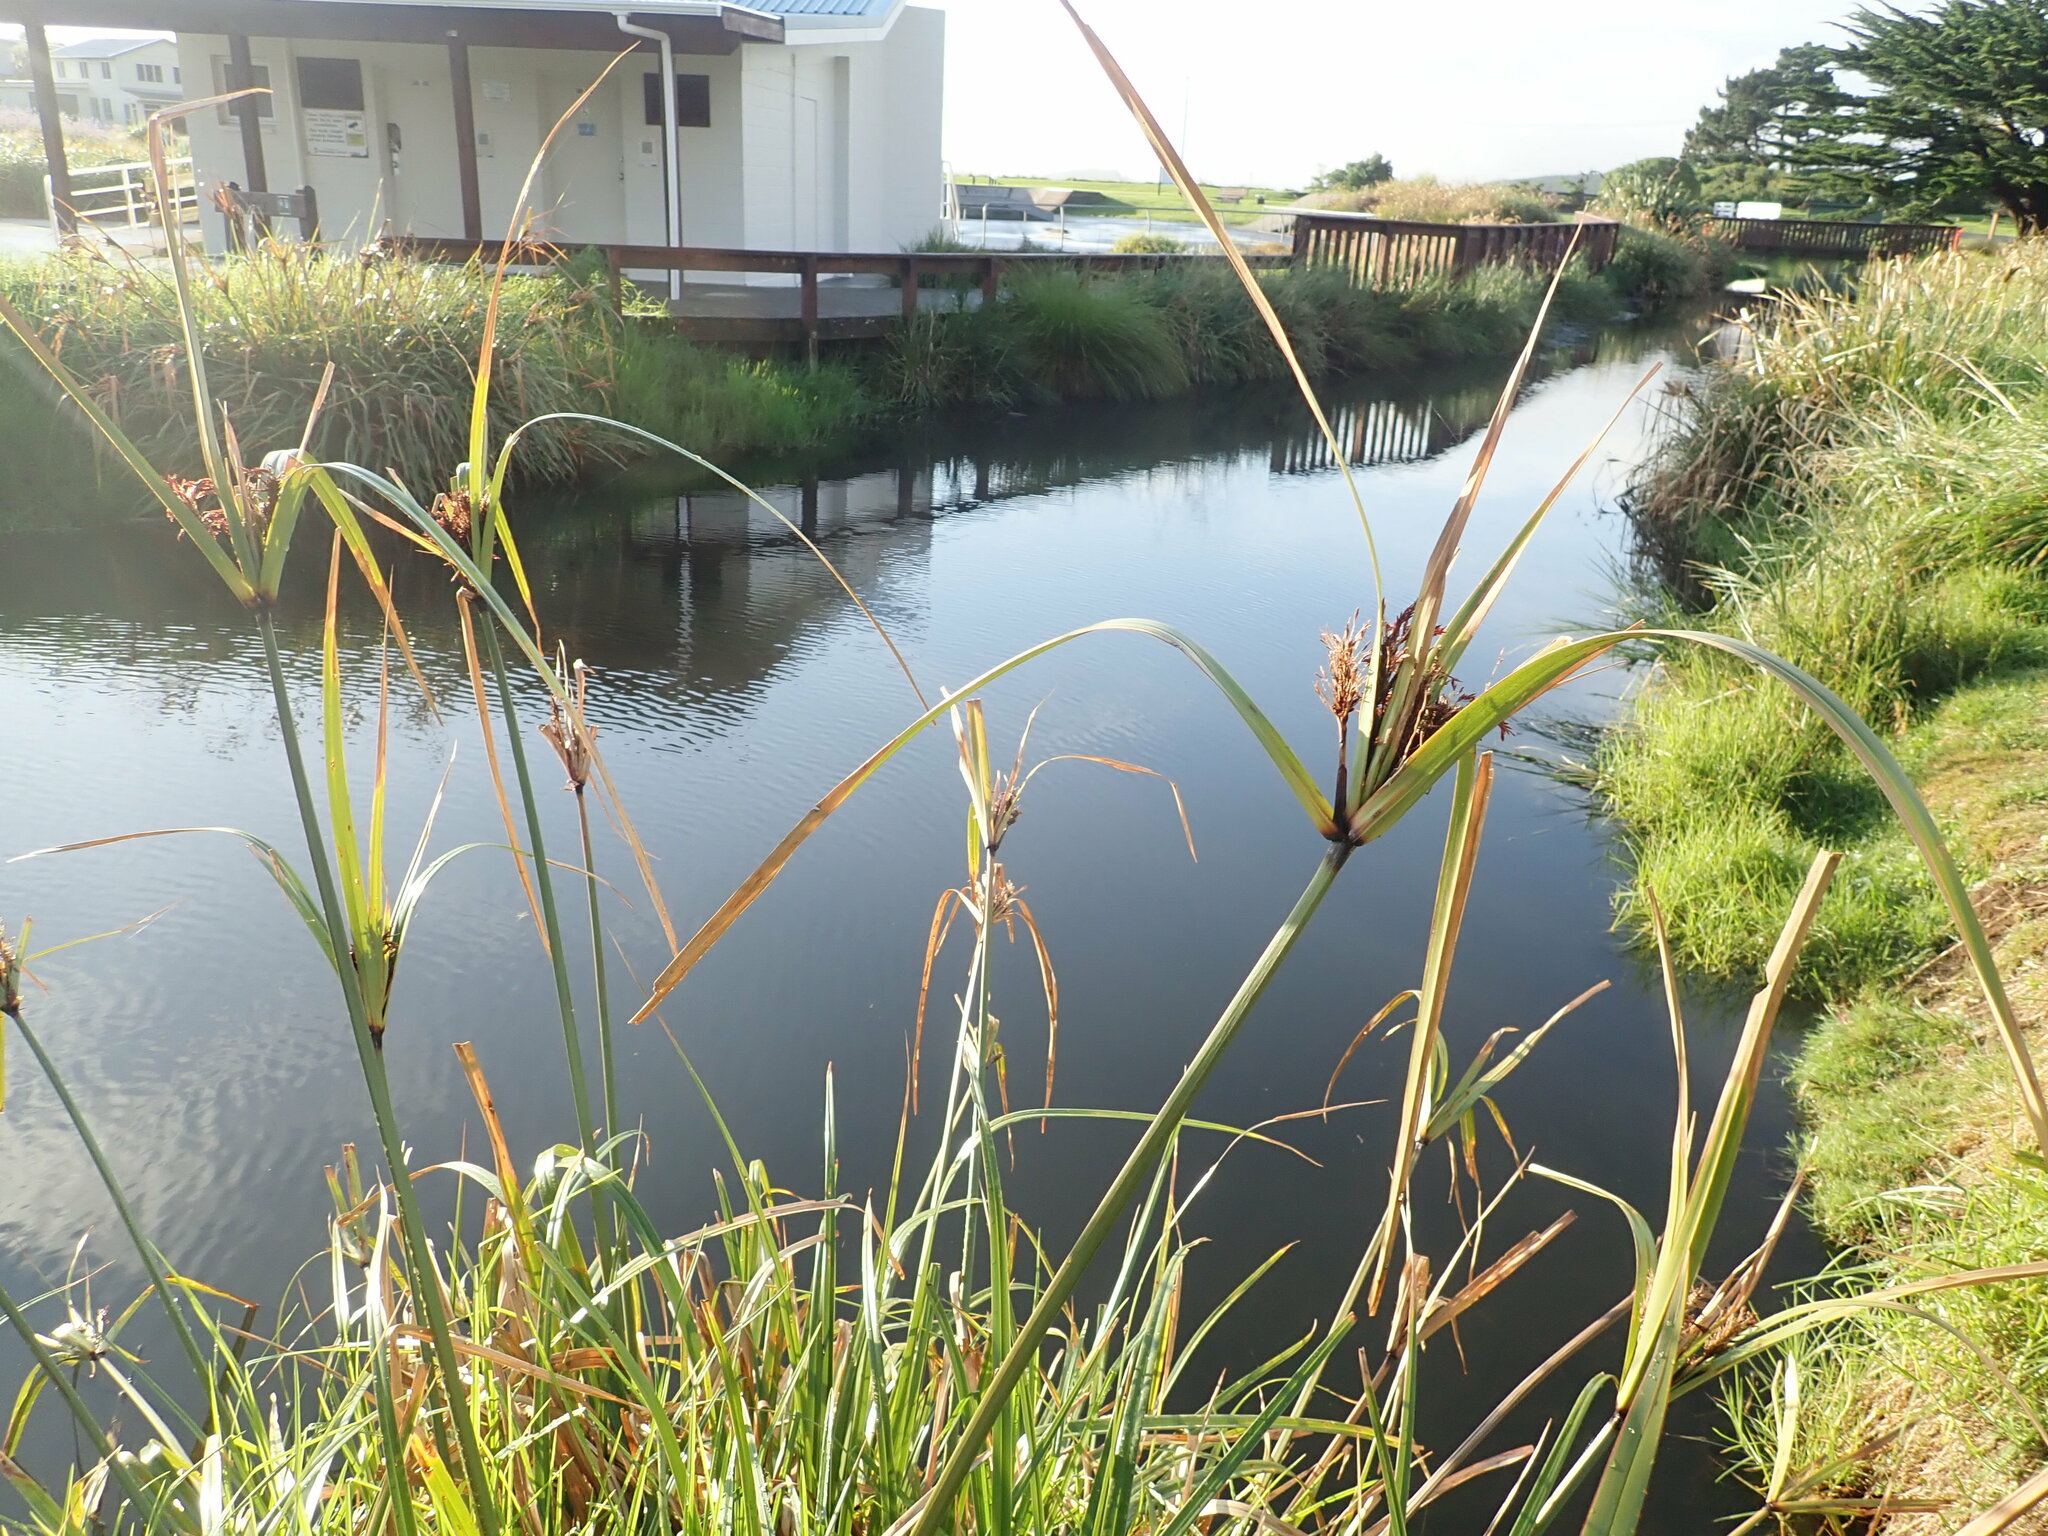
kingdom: Plantae
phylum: Tracheophyta
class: Liliopsida
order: Poales
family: Cyperaceae
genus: Cyperus
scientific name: Cyperus ustulatus
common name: Giant umbrella-sedge
